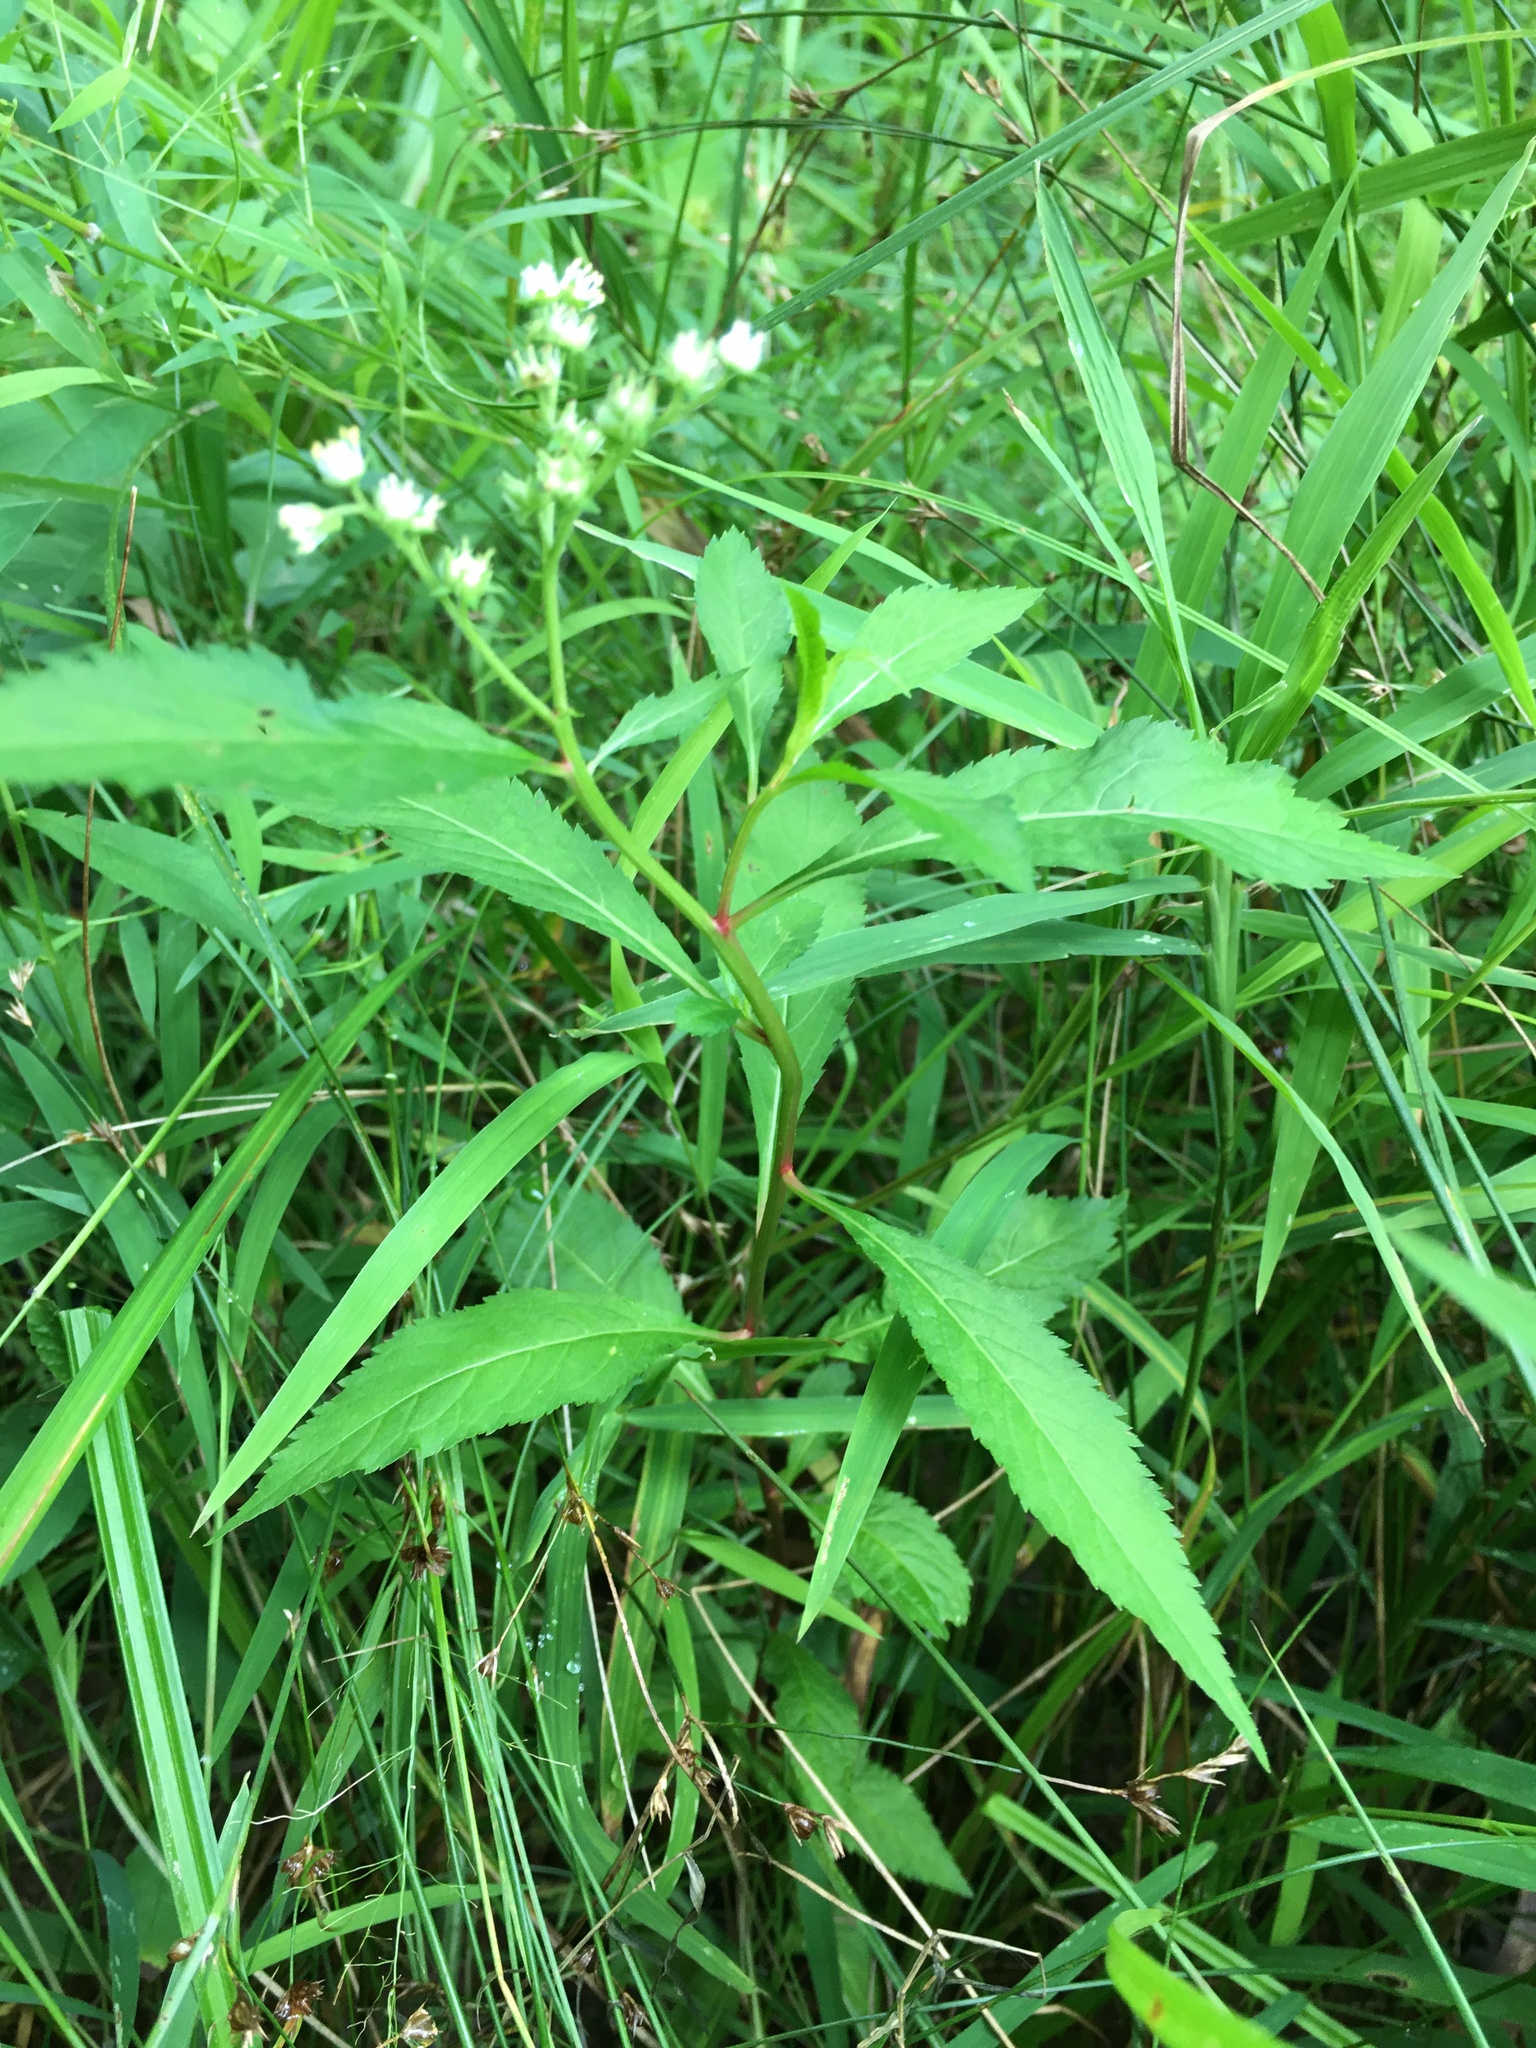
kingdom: Plantae
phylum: Tracheophyta
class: Magnoliopsida
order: Saxifragales
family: Penthoraceae
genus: Penthorum
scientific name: Penthorum sedoides
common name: Ditch stonecrop
